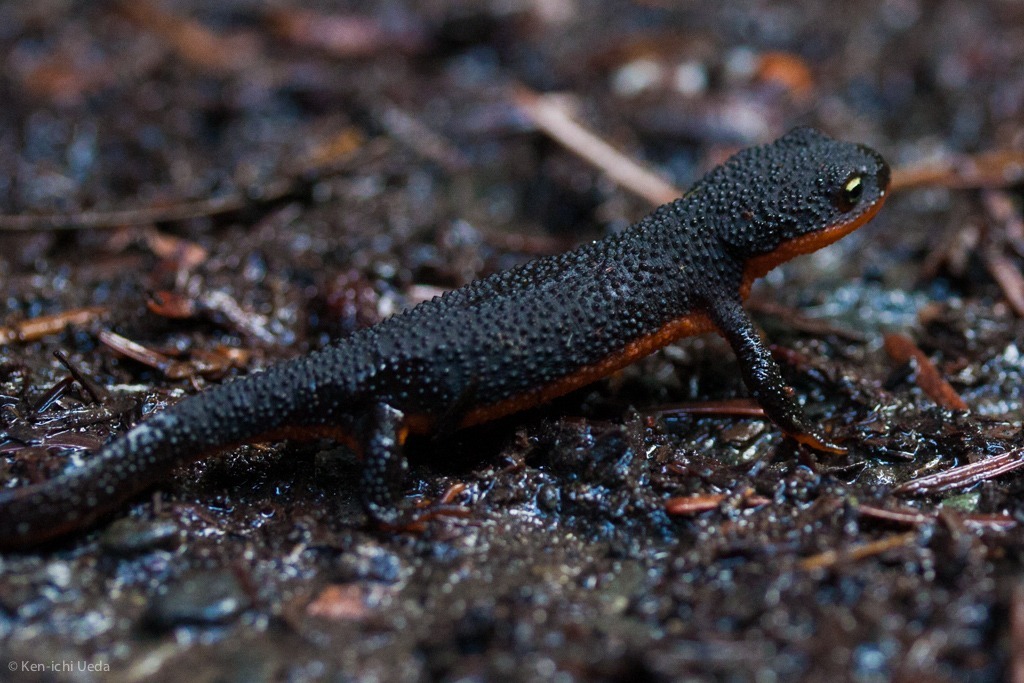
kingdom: Animalia
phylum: Chordata
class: Amphibia
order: Caudata
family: Salamandridae
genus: Taricha
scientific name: Taricha granulosa
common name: Roughskin newt
